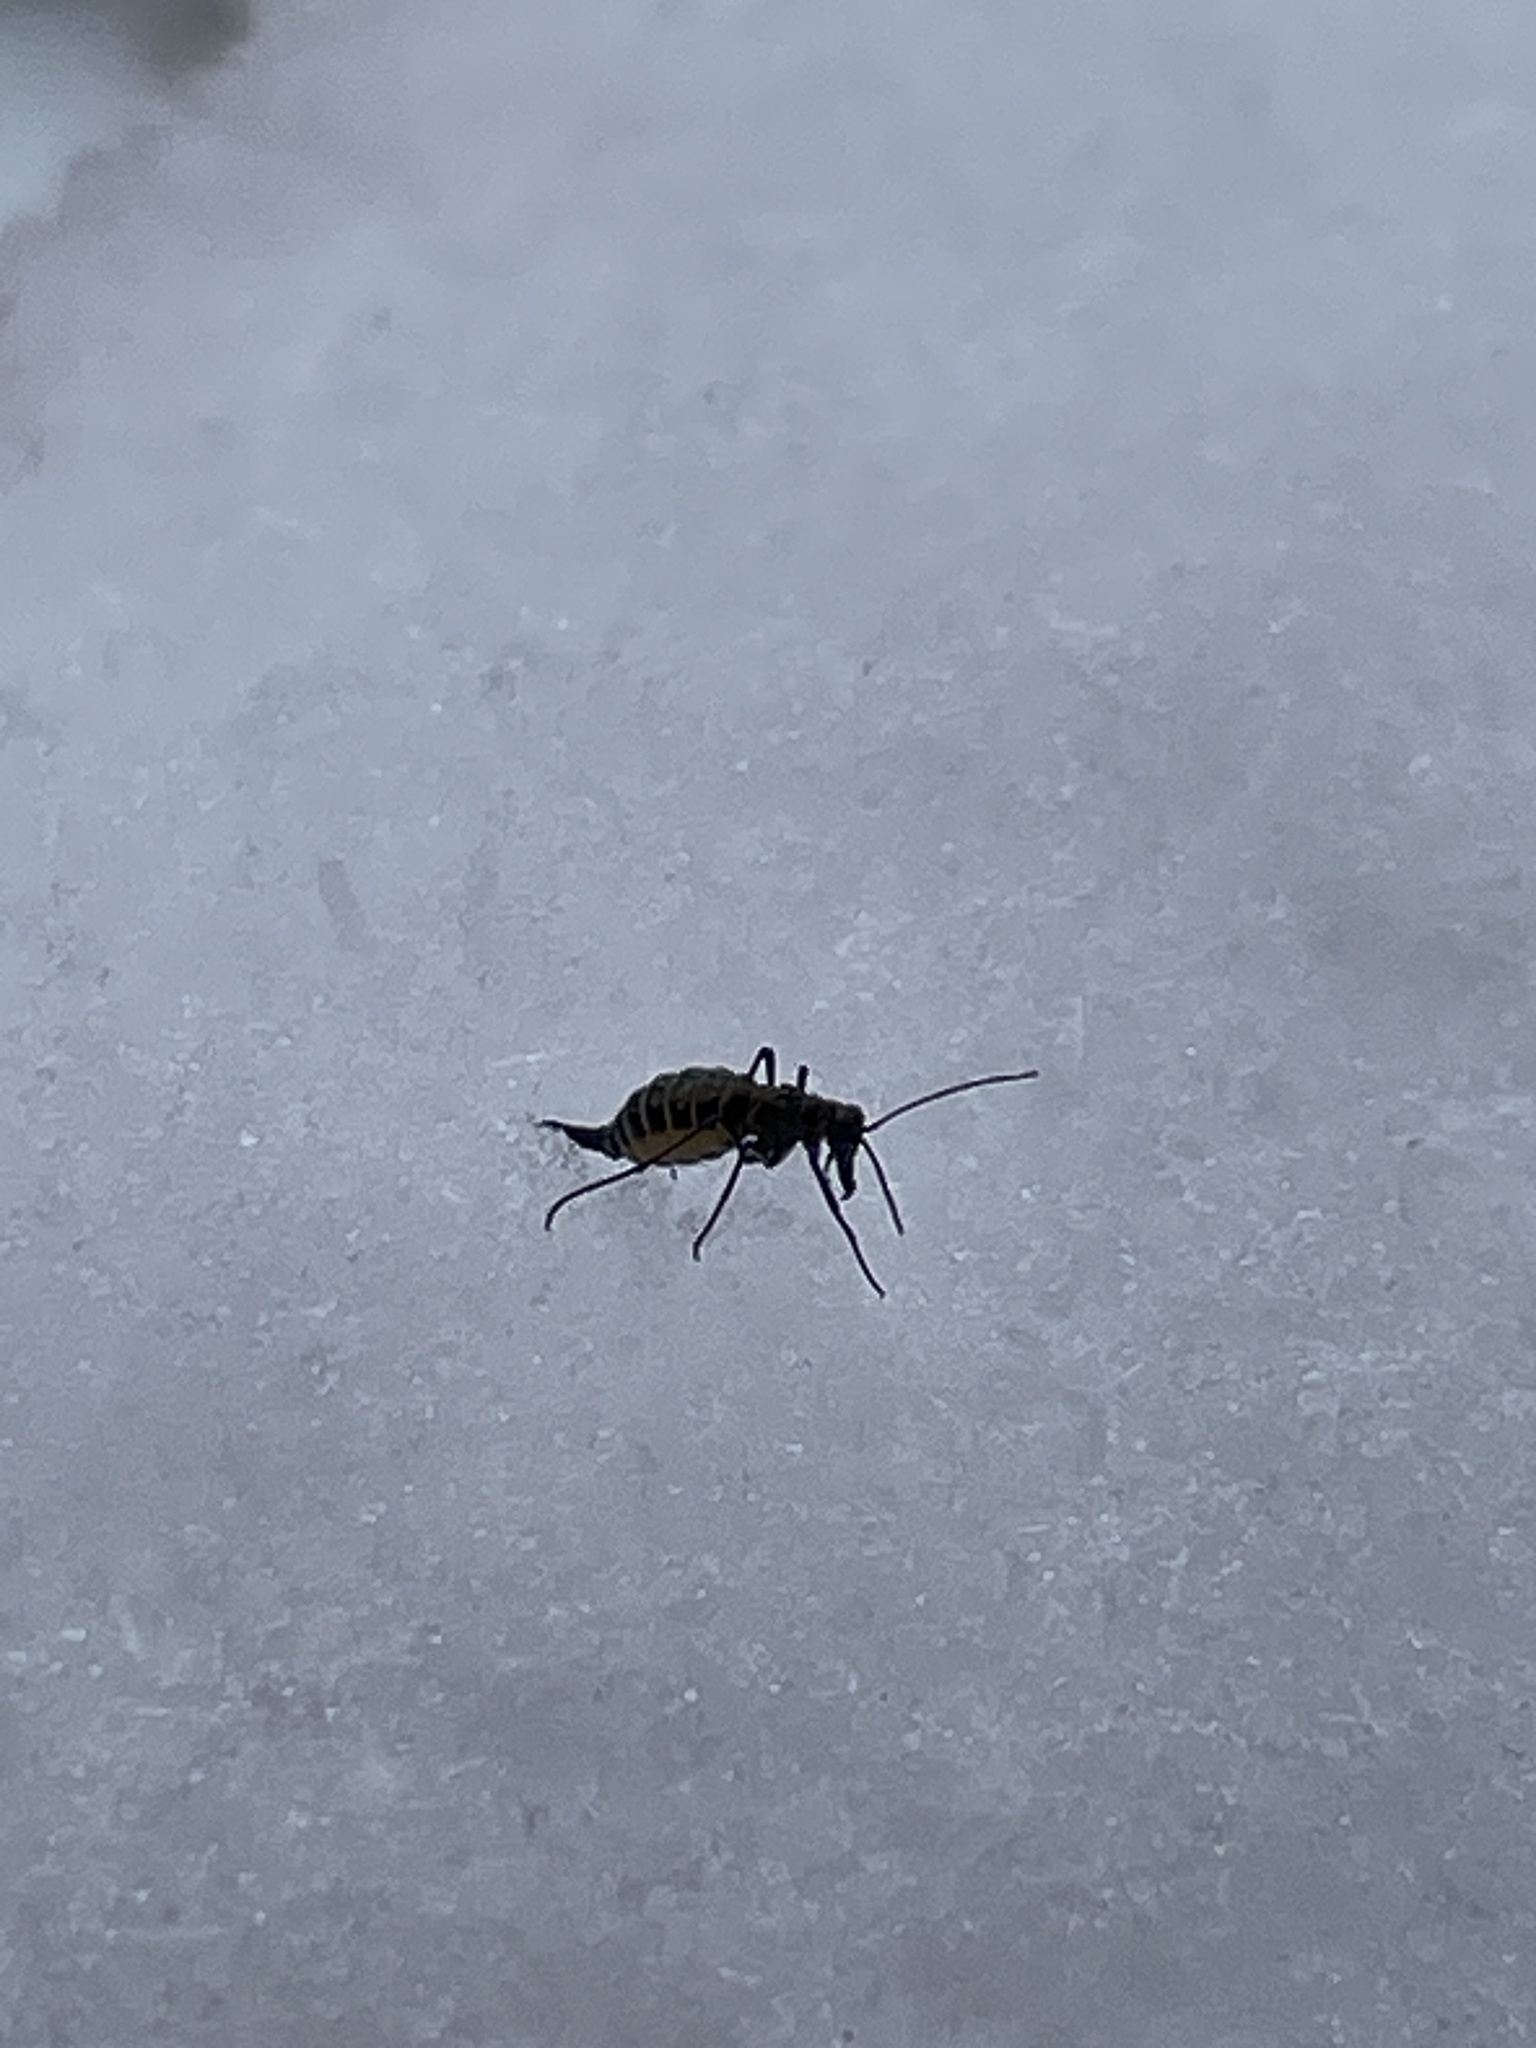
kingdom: Animalia
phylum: Arthropoda
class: Insecta
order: Mecoptera
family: Boreidae
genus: Boreus
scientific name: Boreus brumalis
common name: Mid-winter boreus
